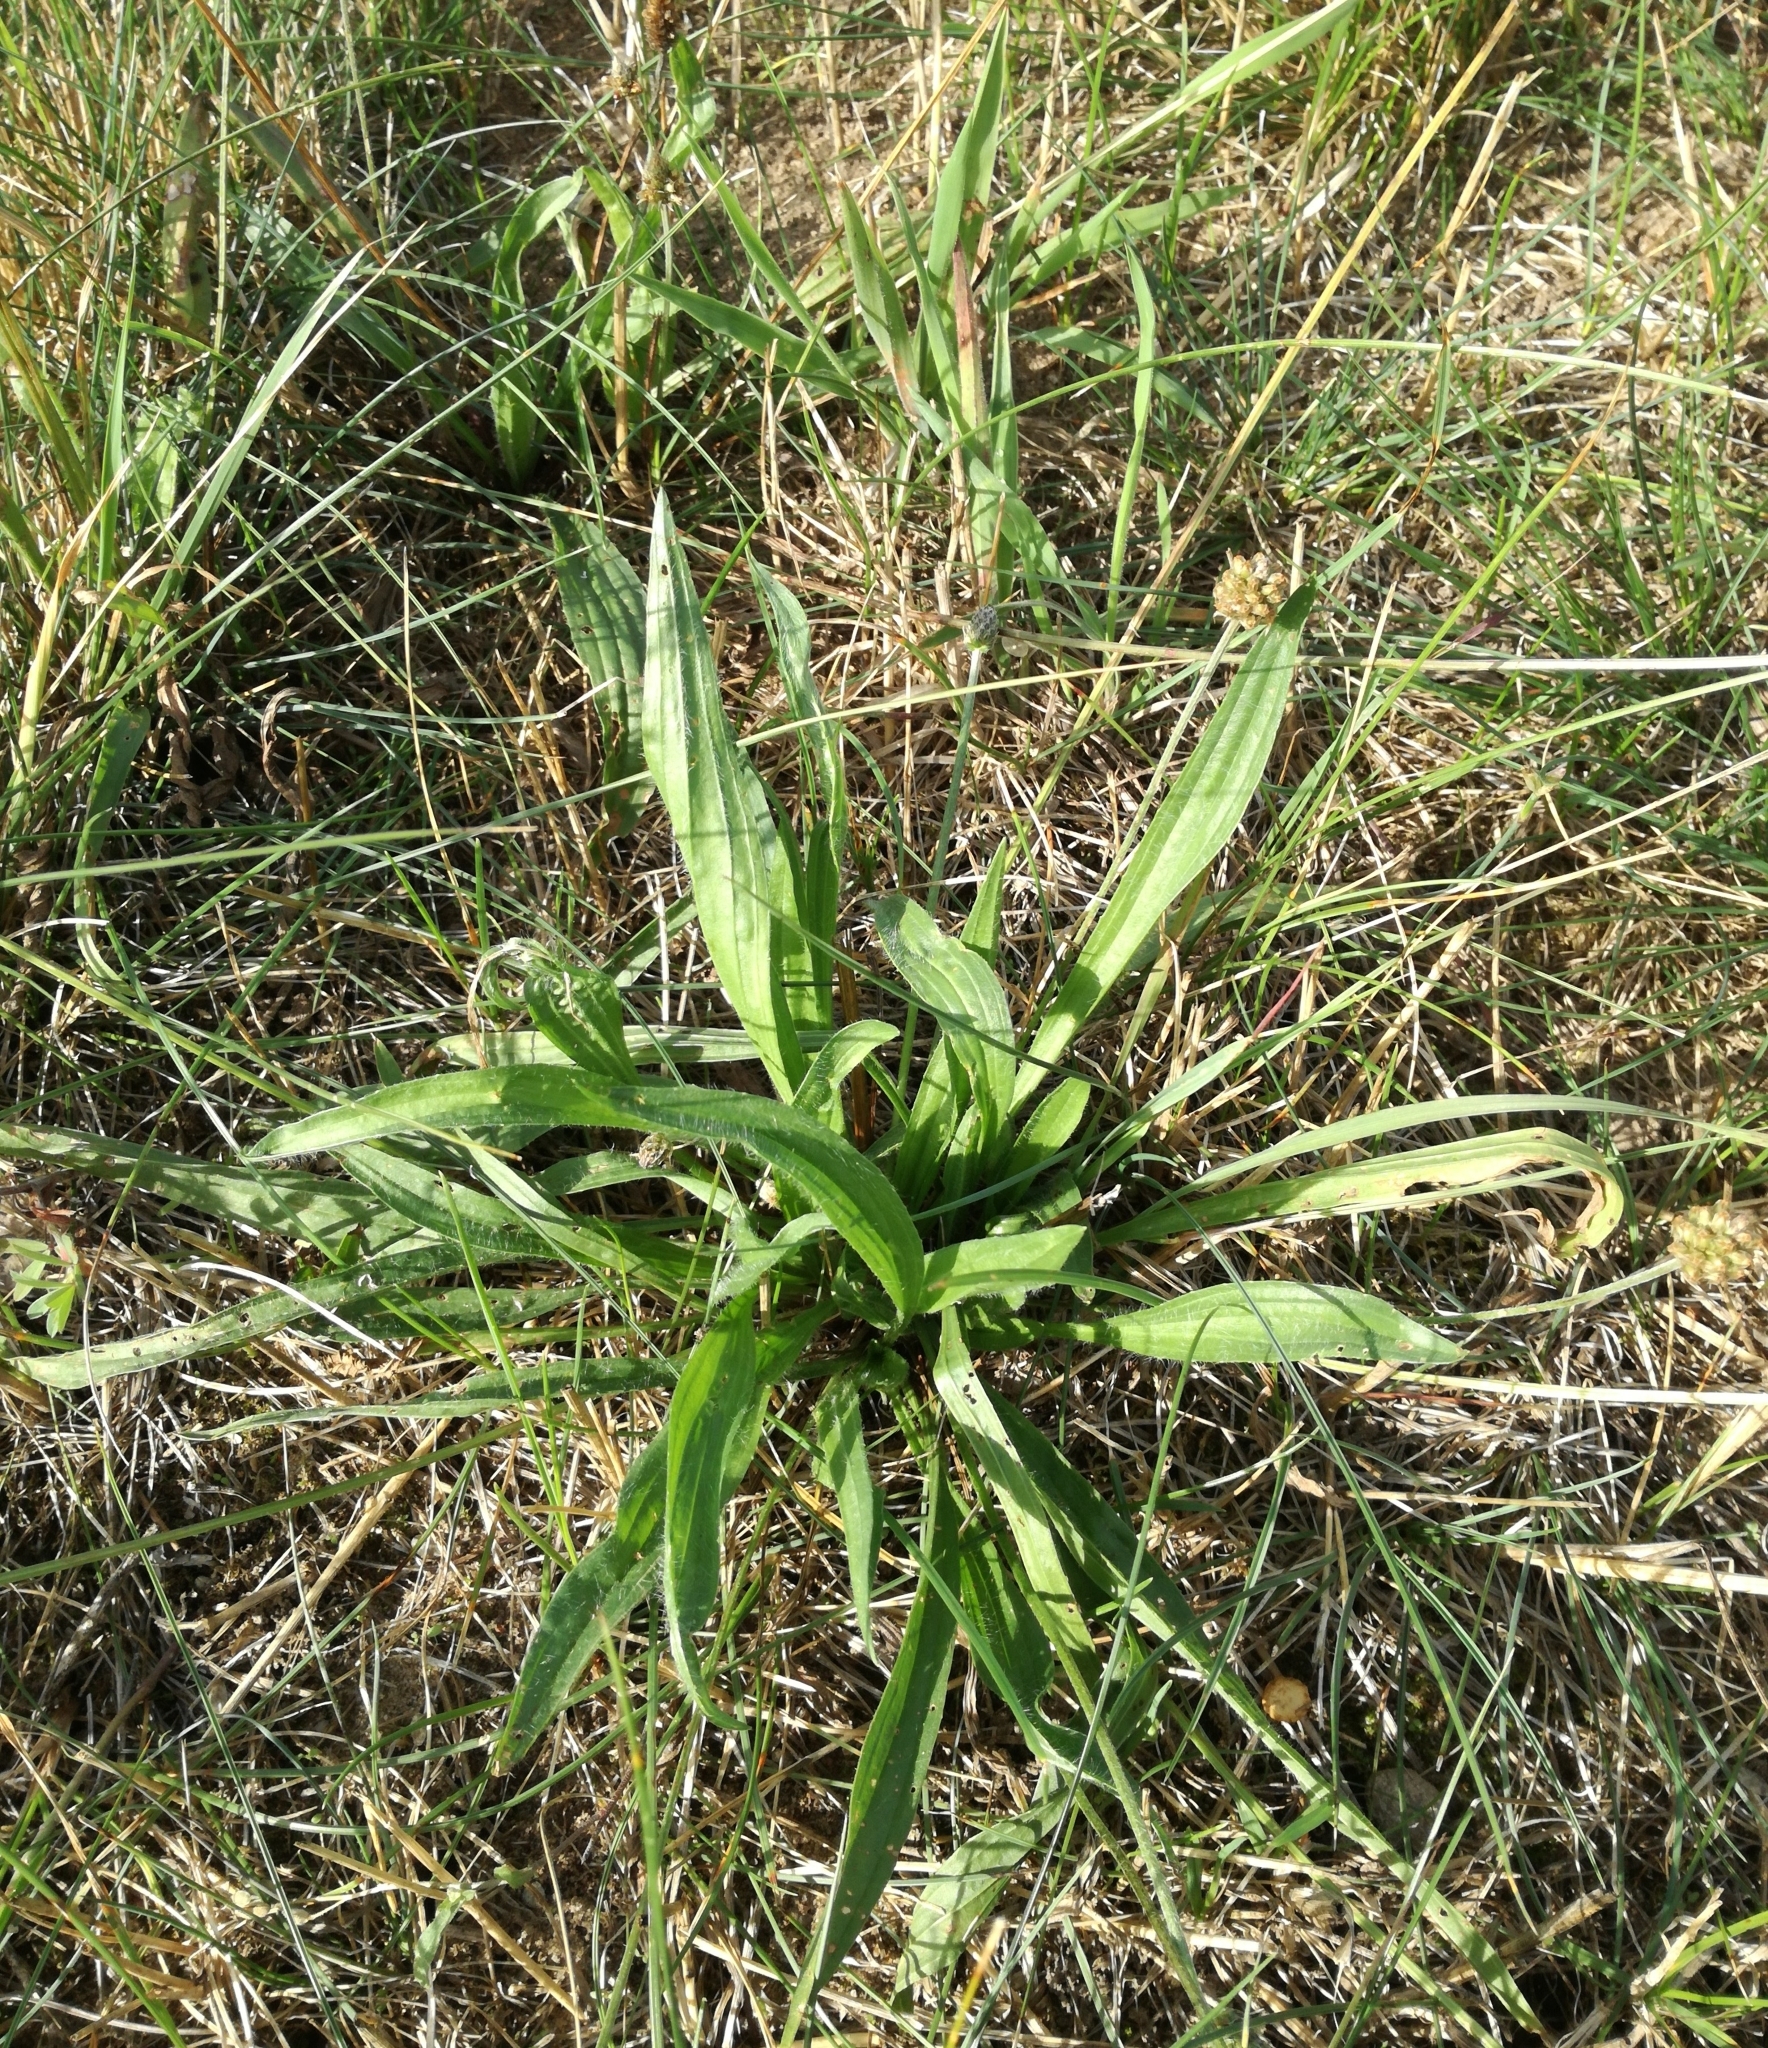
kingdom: Plantae
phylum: Tracheophyta
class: Magnoliopsida
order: Lamiales
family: Plantaginaceae
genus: Plantago
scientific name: Plantago lanceolata
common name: Ribwort plantain
